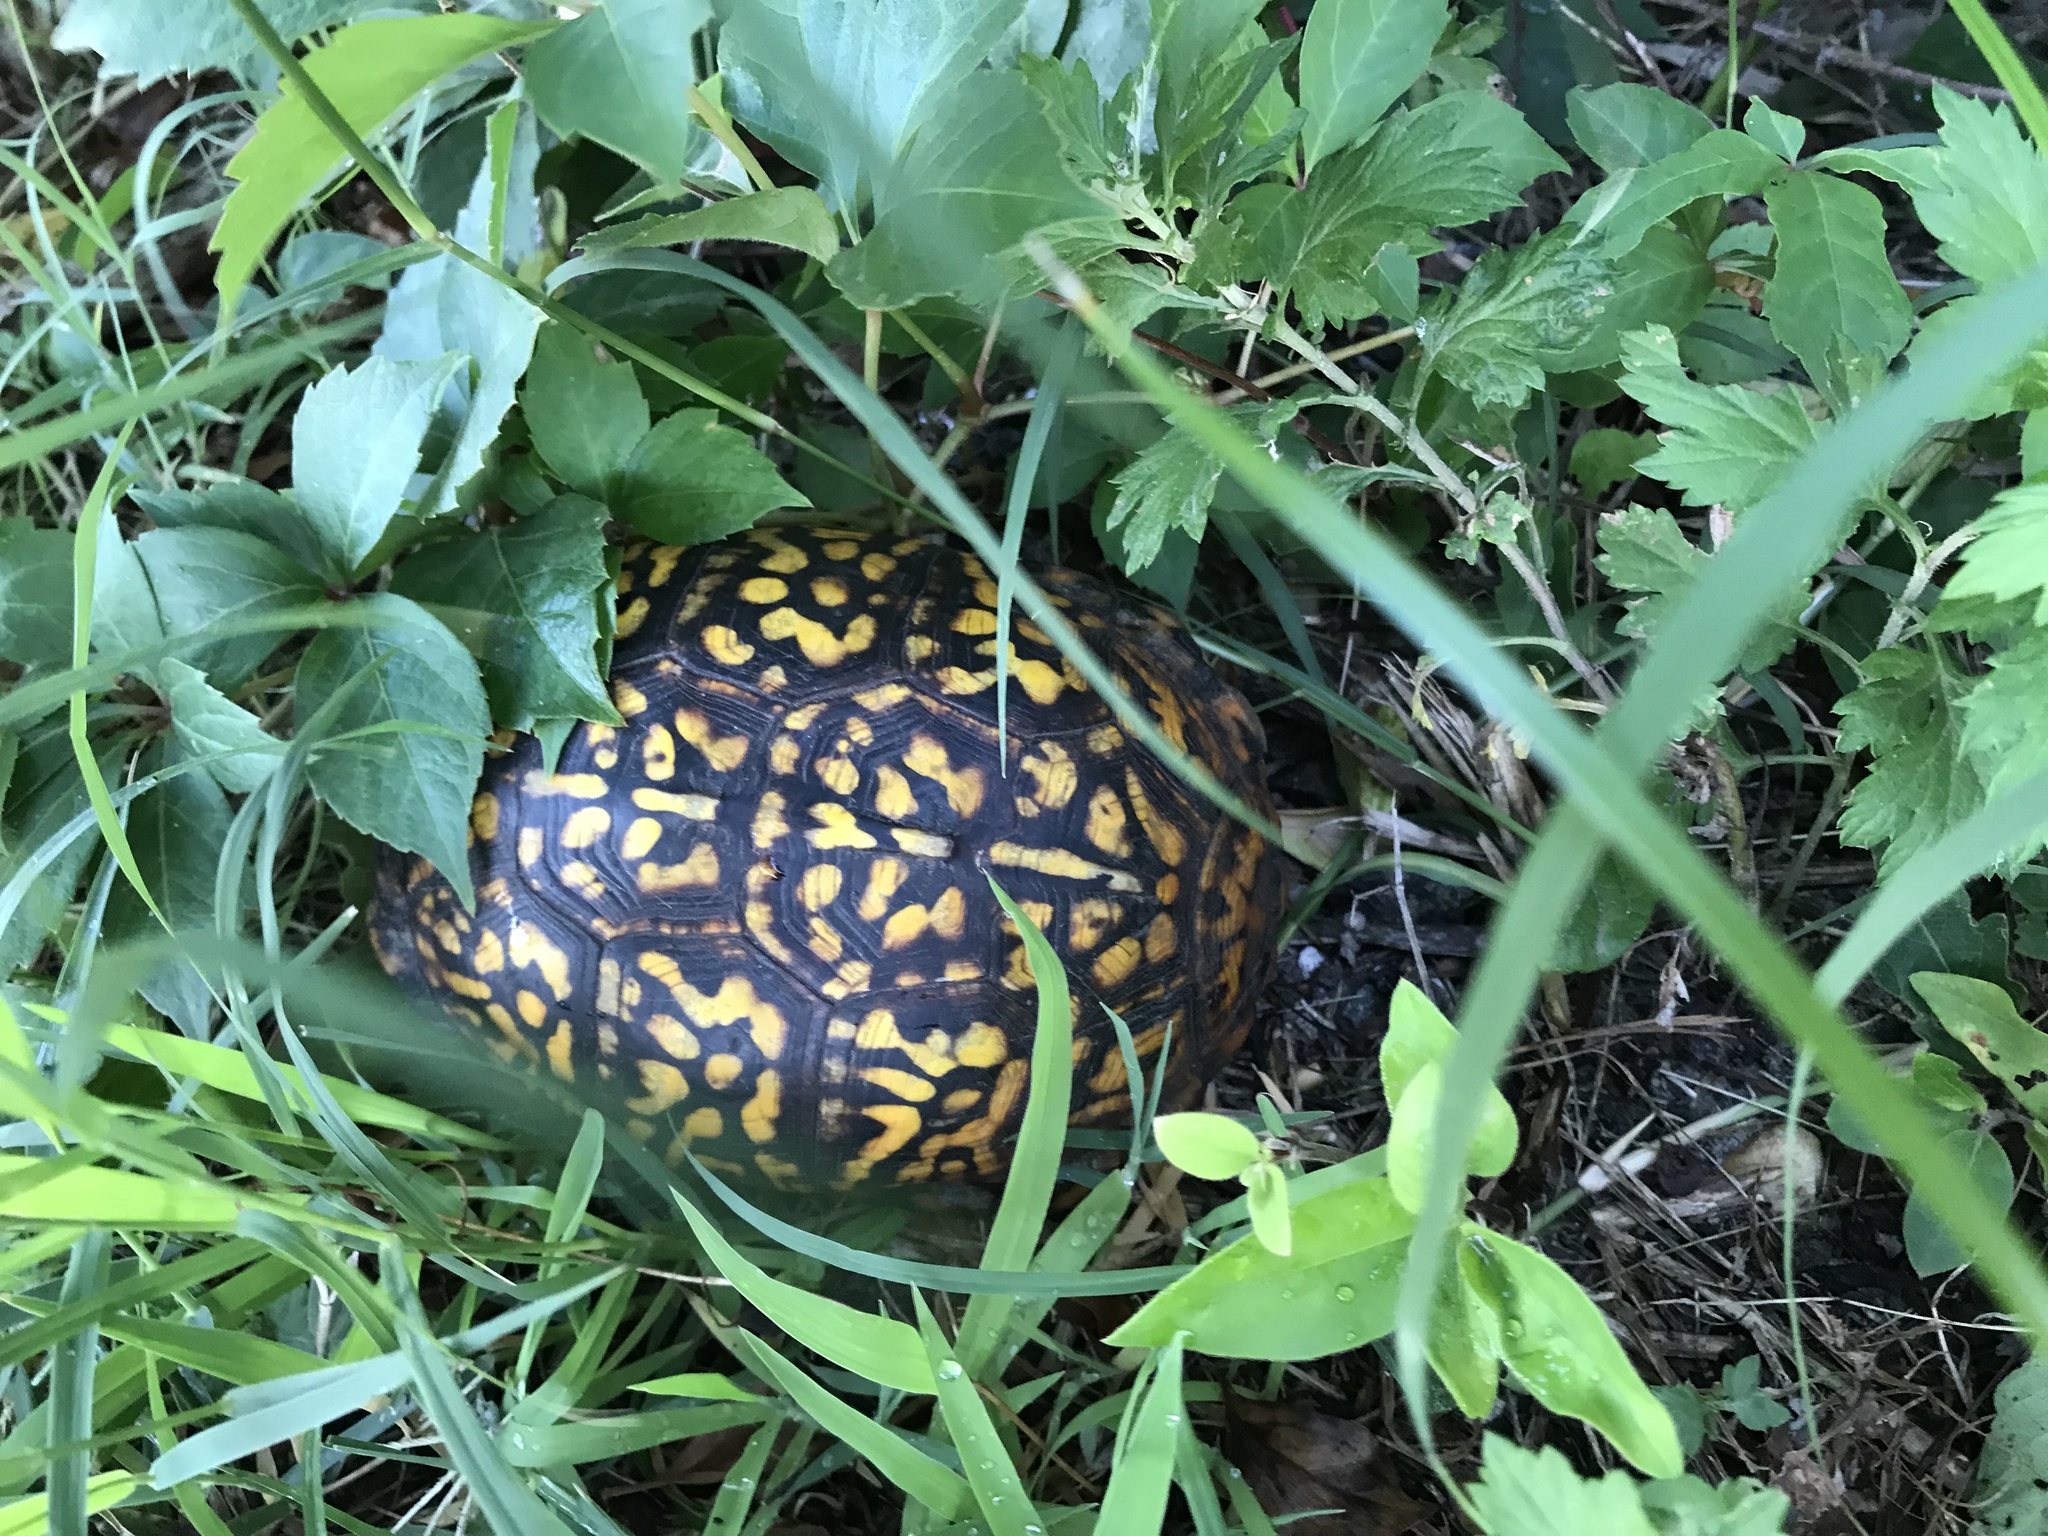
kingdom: Animalia
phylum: Chordata
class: Testudines
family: Emydidae
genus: Terrapene
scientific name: Terrapene carolina
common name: Common box turtle
